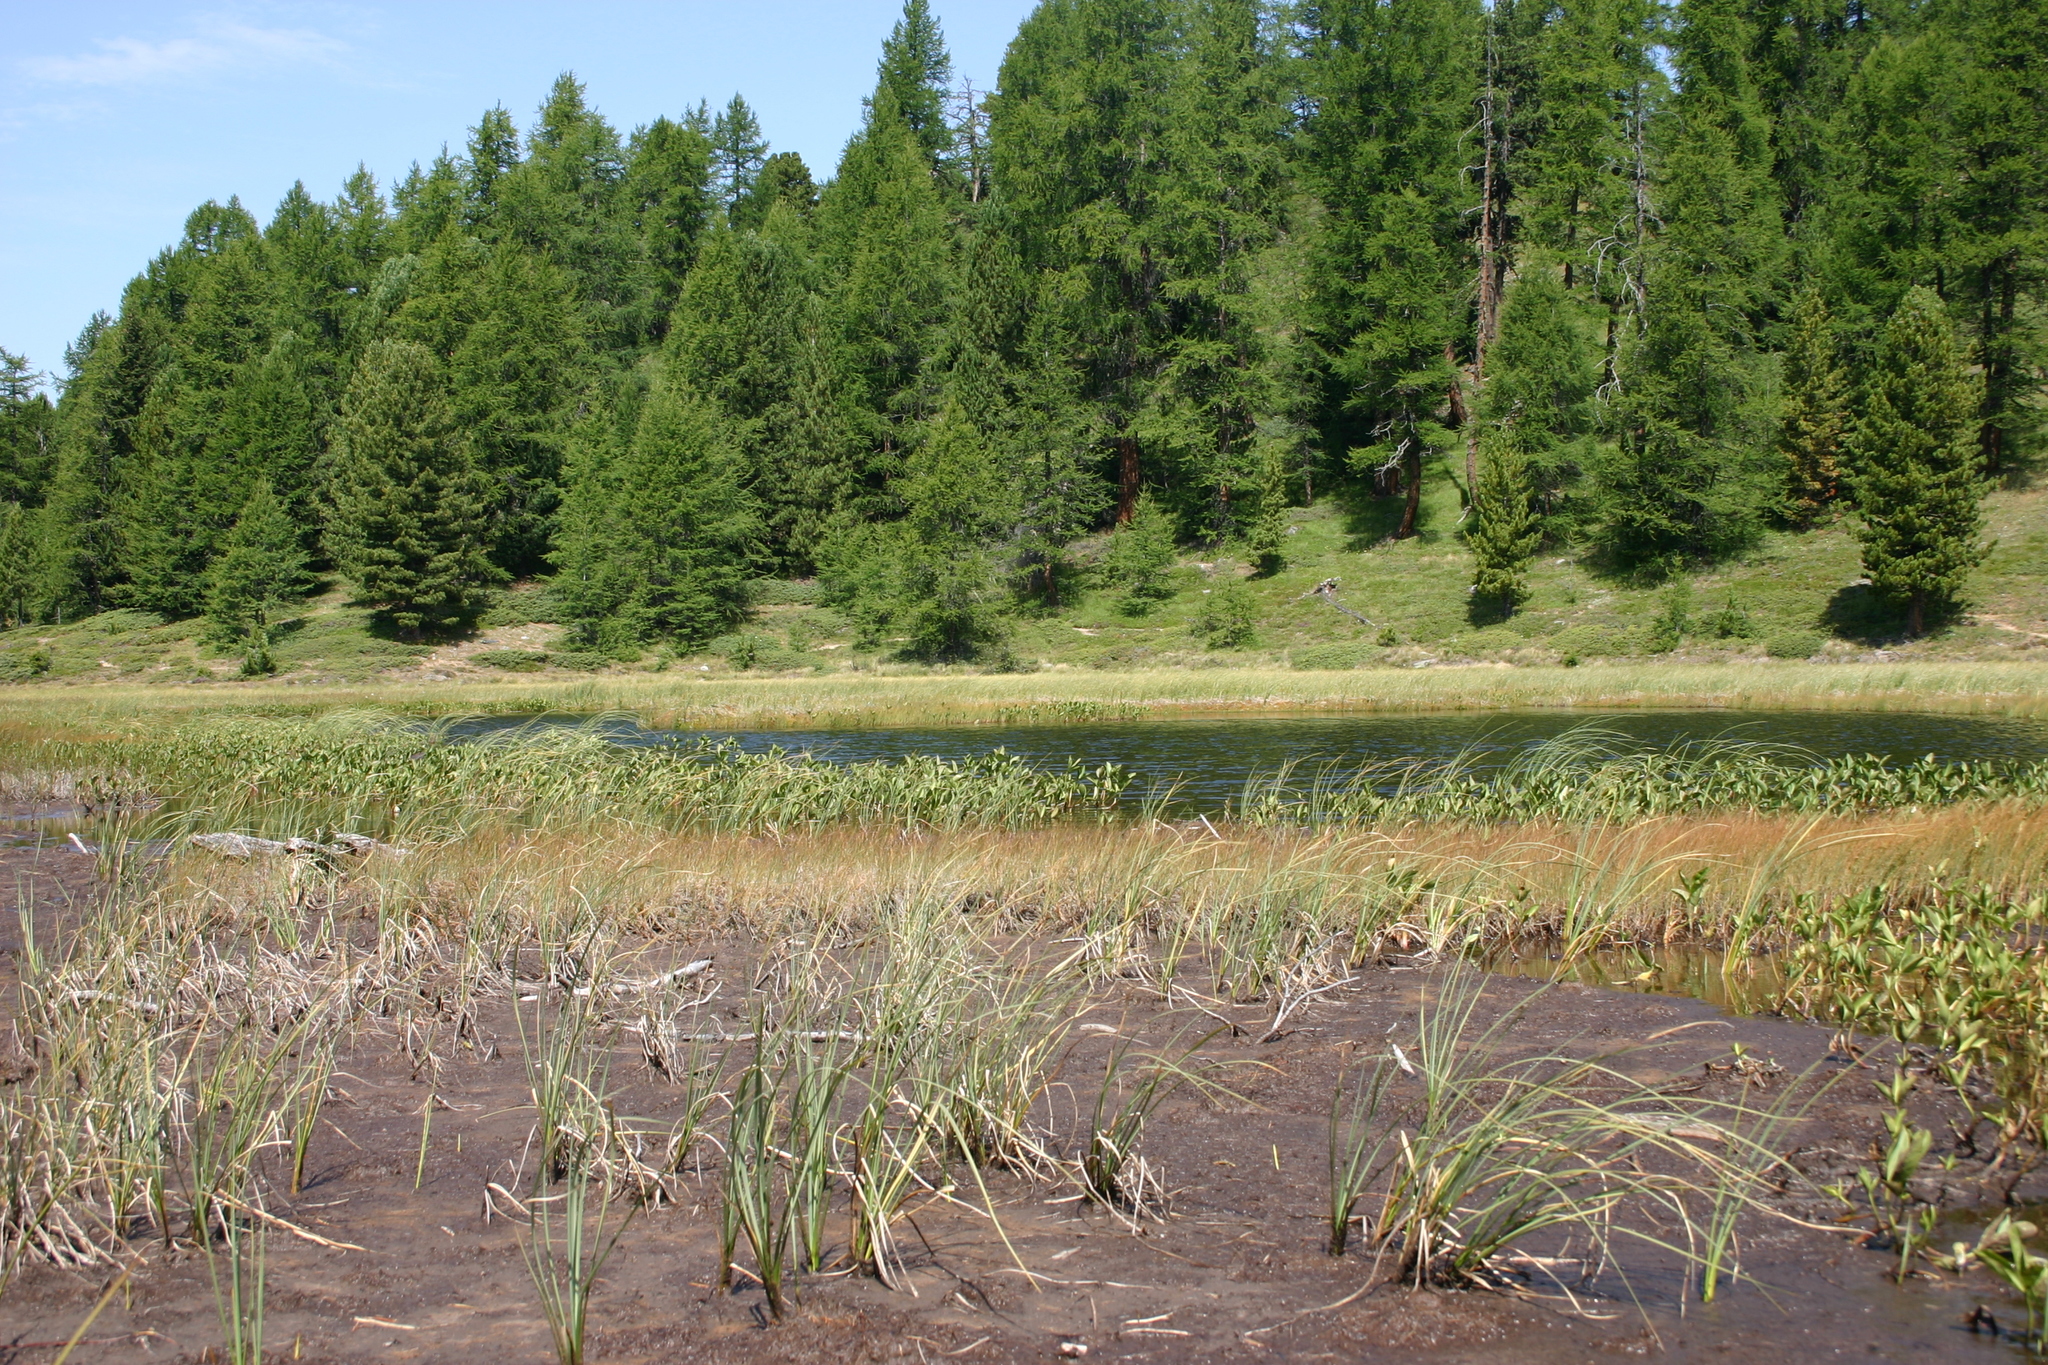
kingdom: Plantae
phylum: Tracheophyta
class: Magnoliopsida
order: Asterales
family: Menyanthaceae
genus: Menyanthes
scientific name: Menyanthes trifoliata
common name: Bogbean
